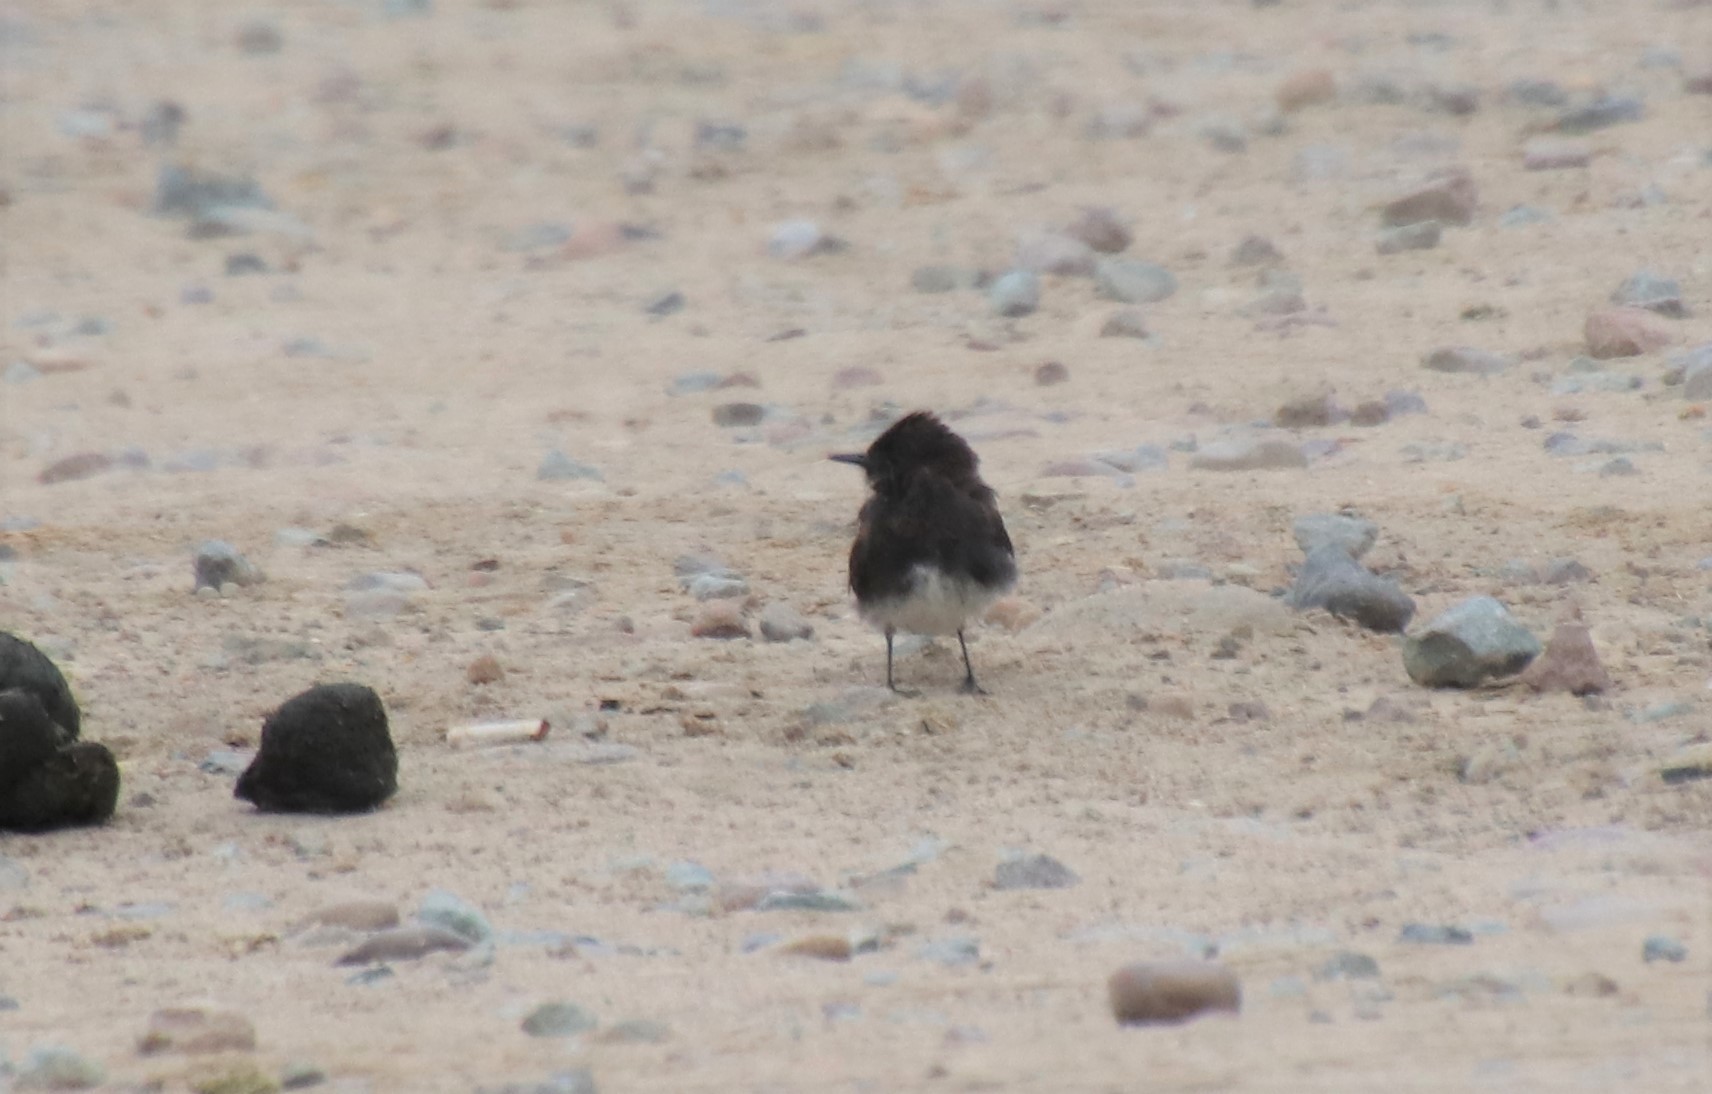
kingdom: Animalia
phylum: Chordata
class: Aves
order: Passeriformes
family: Tyrannidae
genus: Sayornis
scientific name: Sayornis nigricans
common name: Black phoebe
